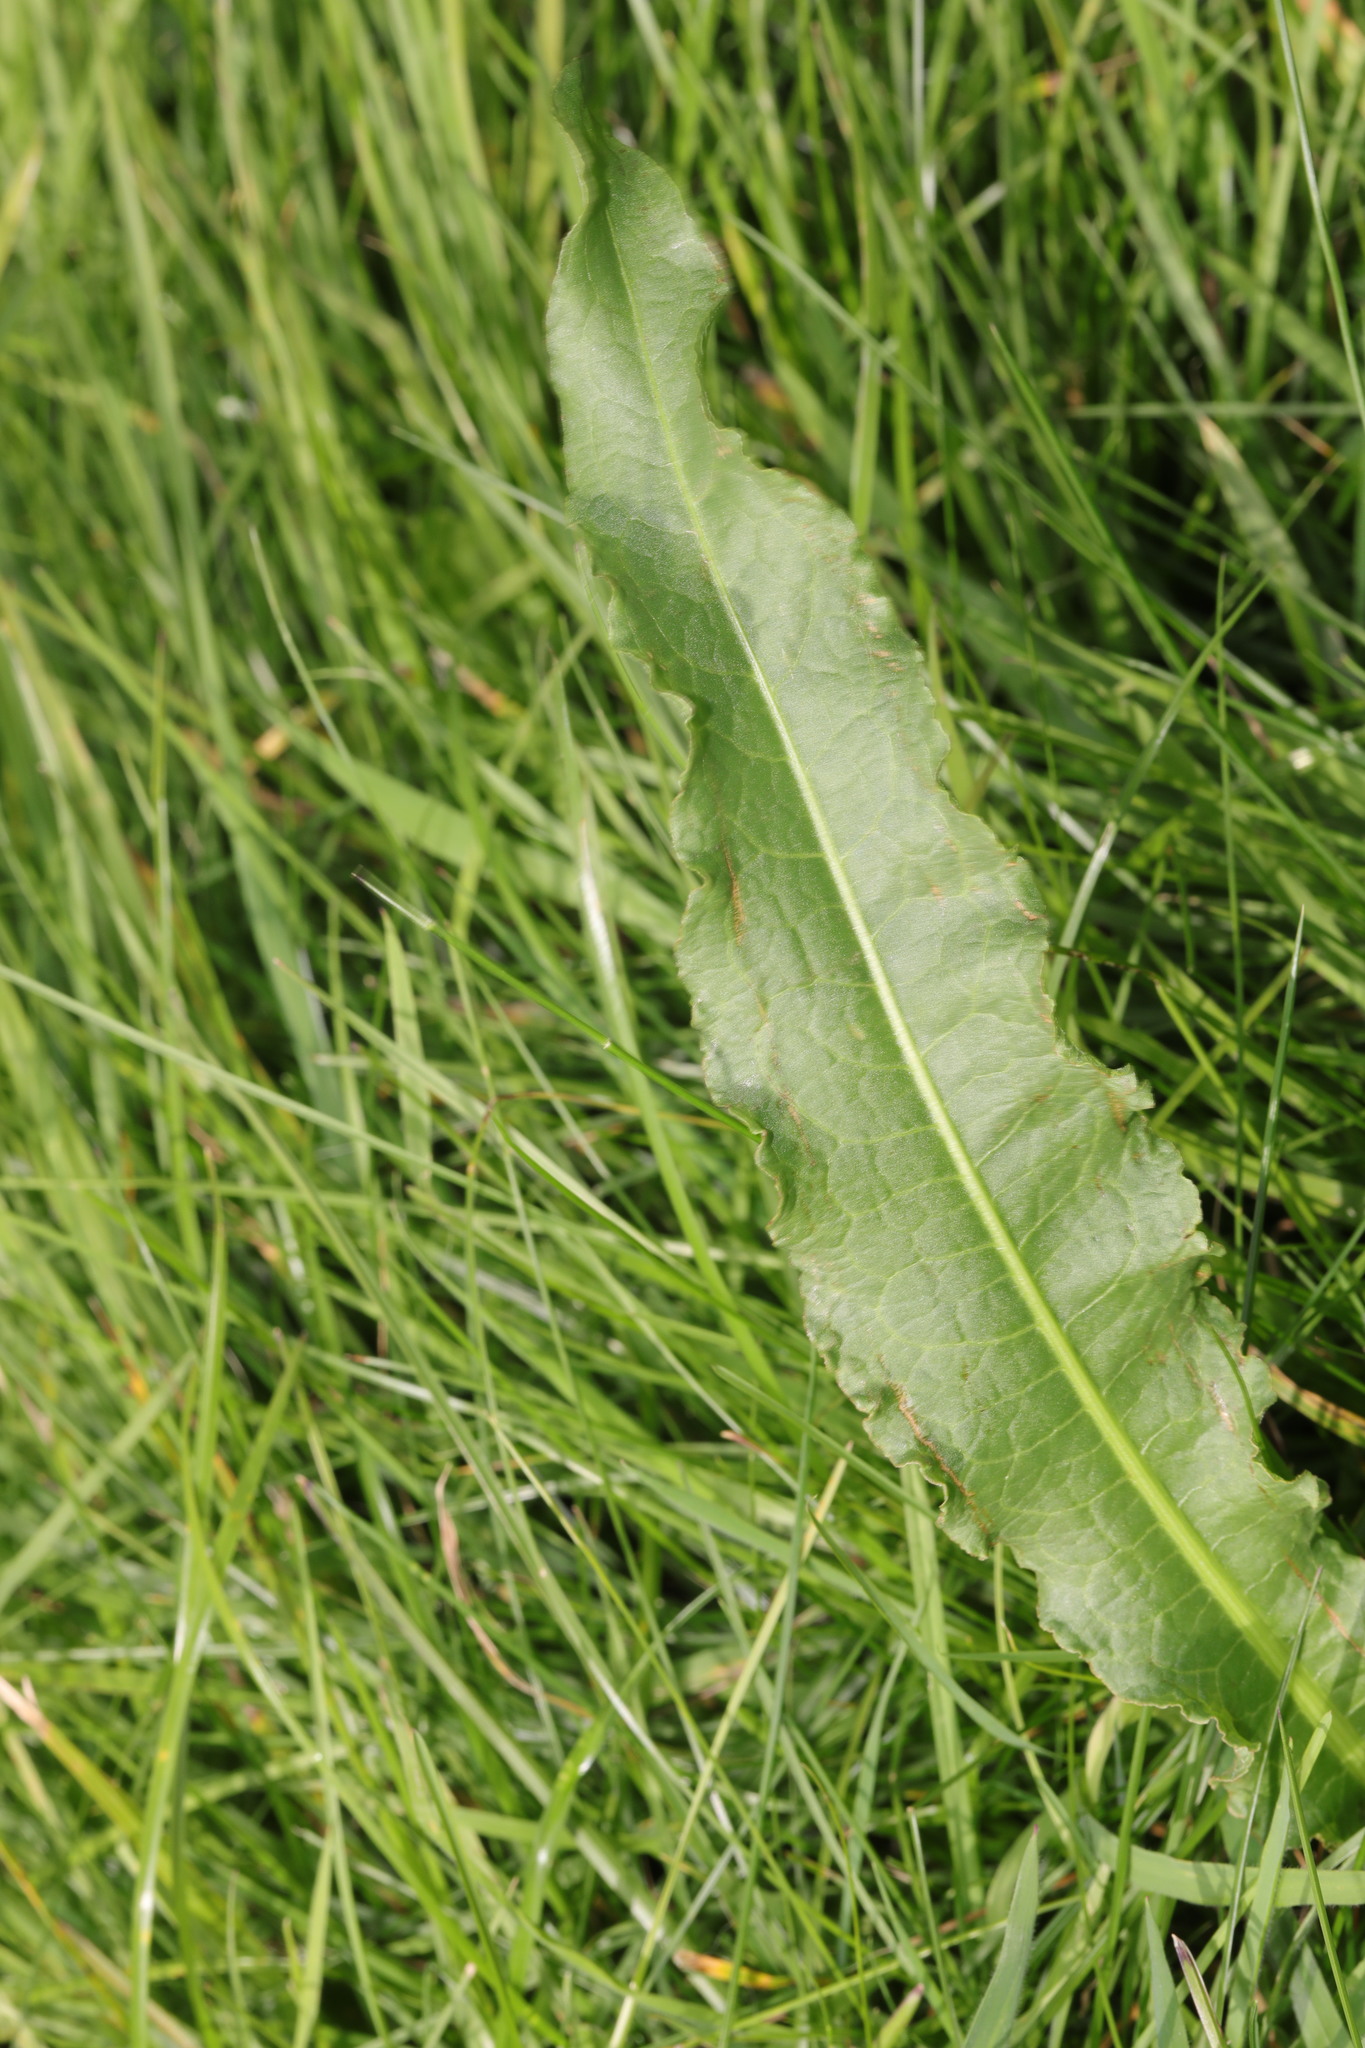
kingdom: Plantae
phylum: Tracheophyta
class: Magnoliopsida
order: Caryophyllales
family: Polygonaceae
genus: Rumex
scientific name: Rumex crispus
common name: Curled dock
